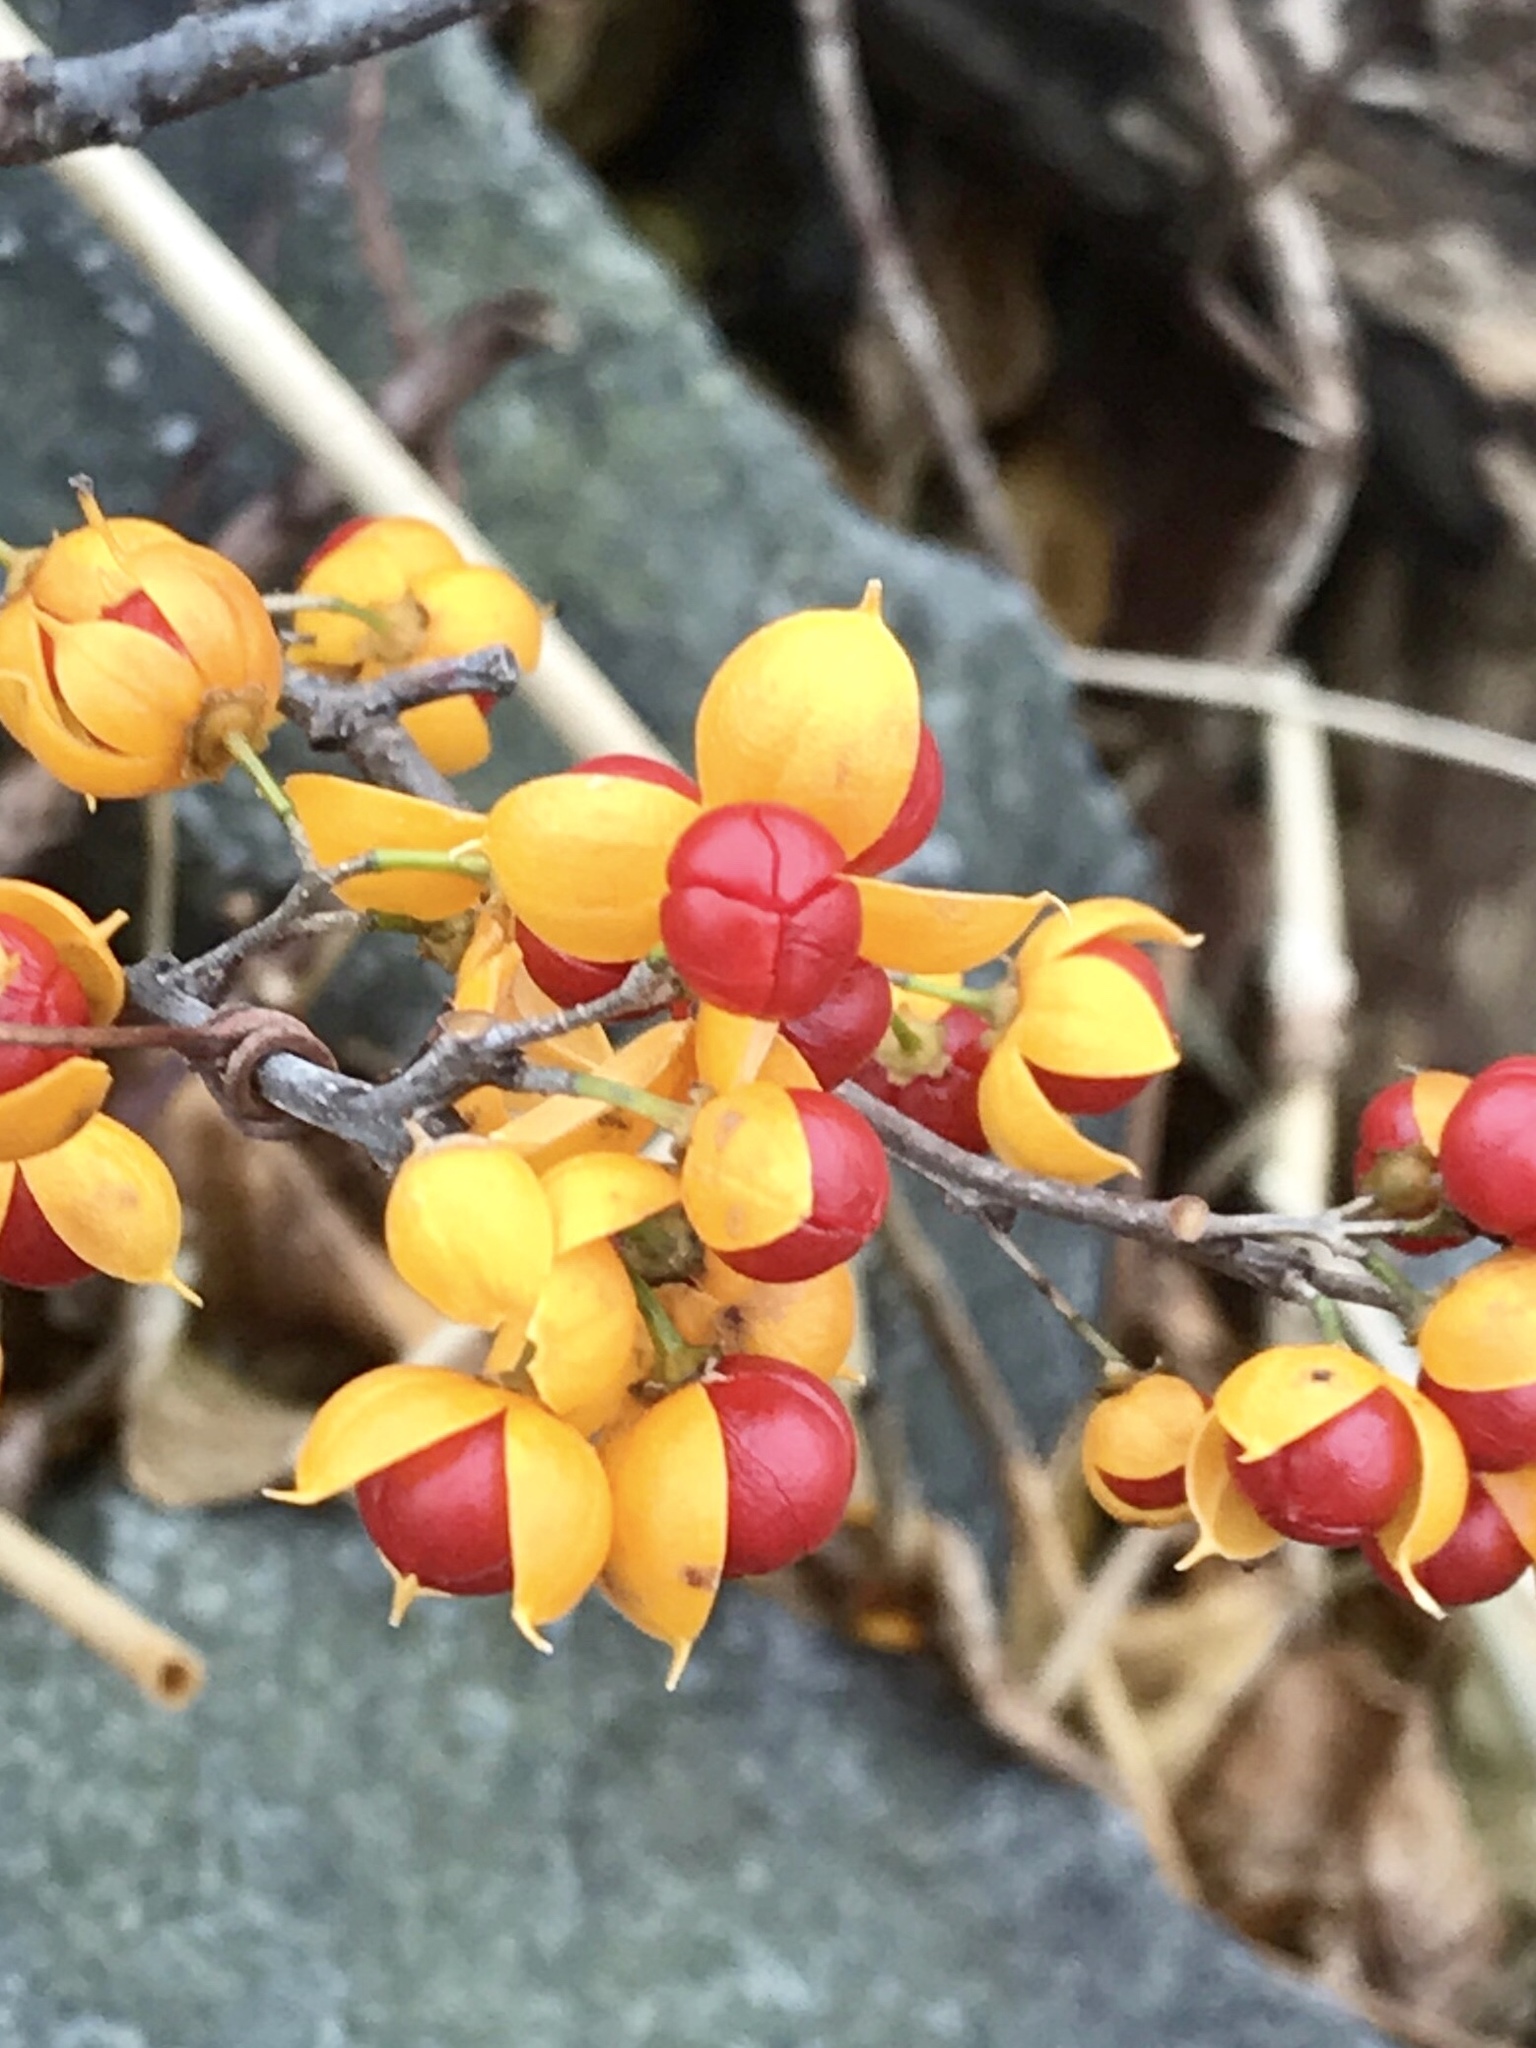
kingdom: Plantae
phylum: Tracheophyta
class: Magnoliopsida
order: Celastrales
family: Celastraceae
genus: Celastrus
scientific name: Celastrus orbiculatus
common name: Oriental bittersweet
